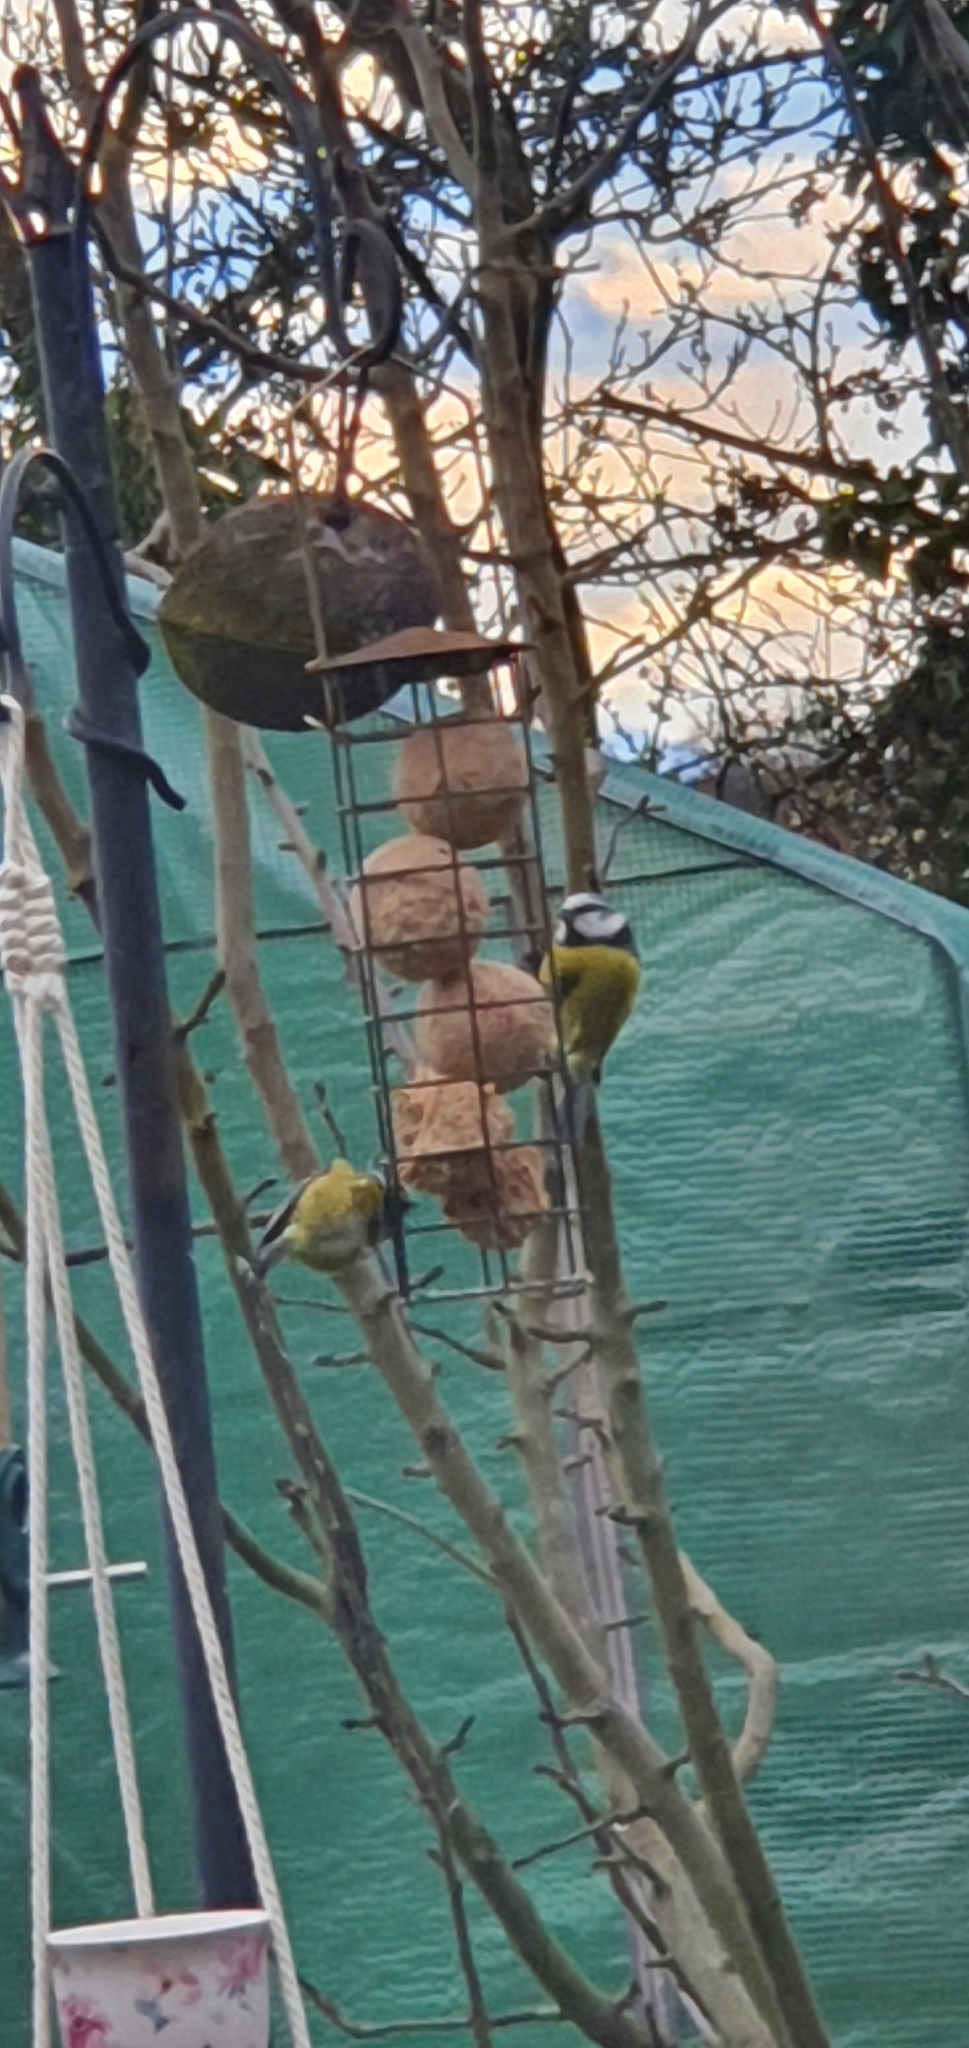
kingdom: Animalia
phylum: Chordata
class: Aves
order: Passeriformes
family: Paridae
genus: Cyanistes
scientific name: Cyanistes caeruleus
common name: Eurasian blue tit
